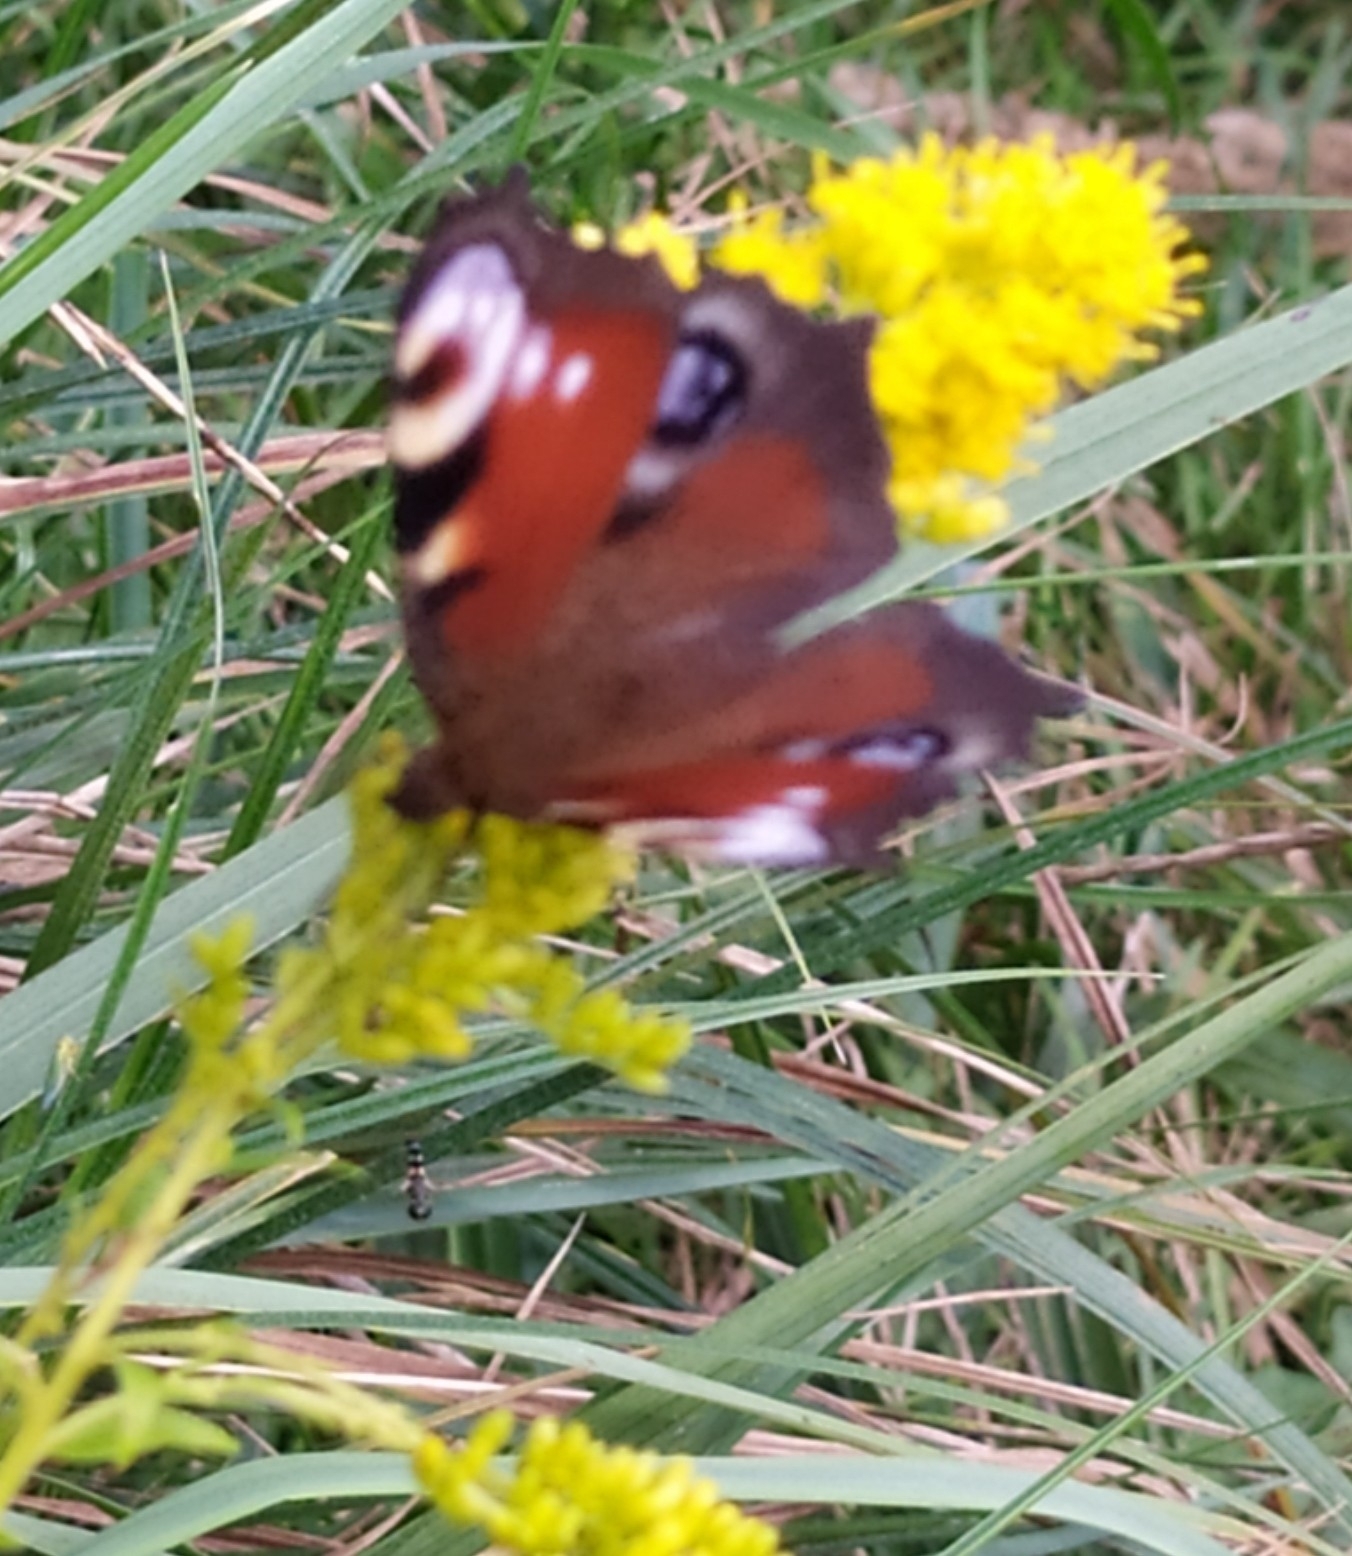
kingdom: Animalia
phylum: Arthropoda
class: Insecta
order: Lepidoptera
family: Nymphalidae
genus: Aglais
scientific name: Aglais io
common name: Peacock
